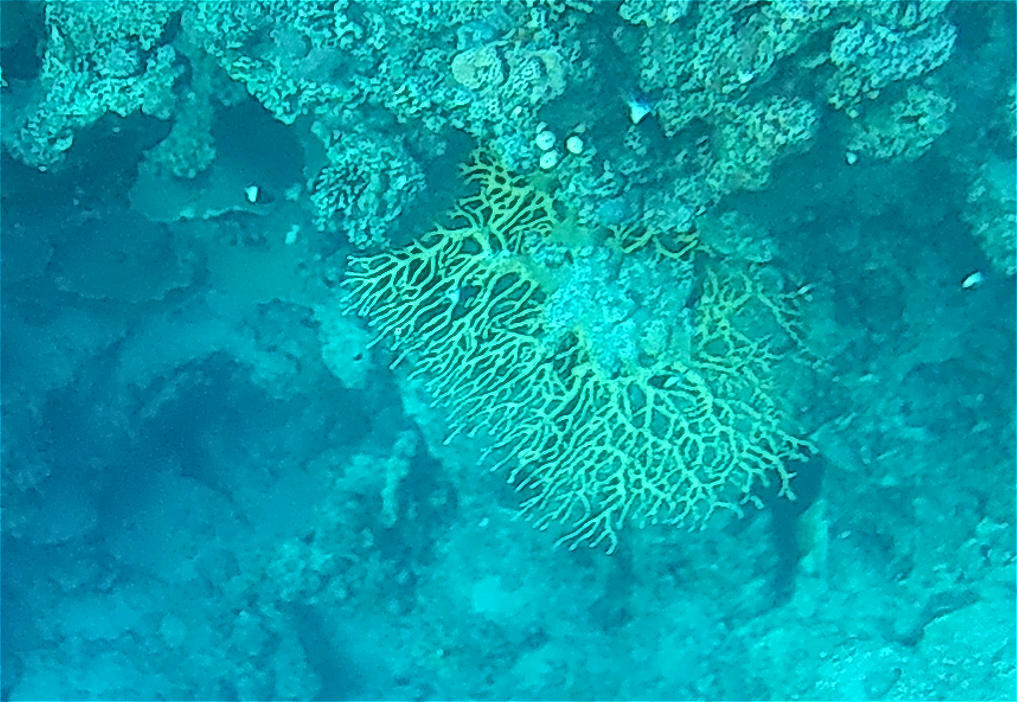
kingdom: Animalia
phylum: Cnidaria
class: Hydrozoa
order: Anthoathecata
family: Milleporidae
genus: Millepora
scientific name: Millepora dichotoma
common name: Ramified fire coral
